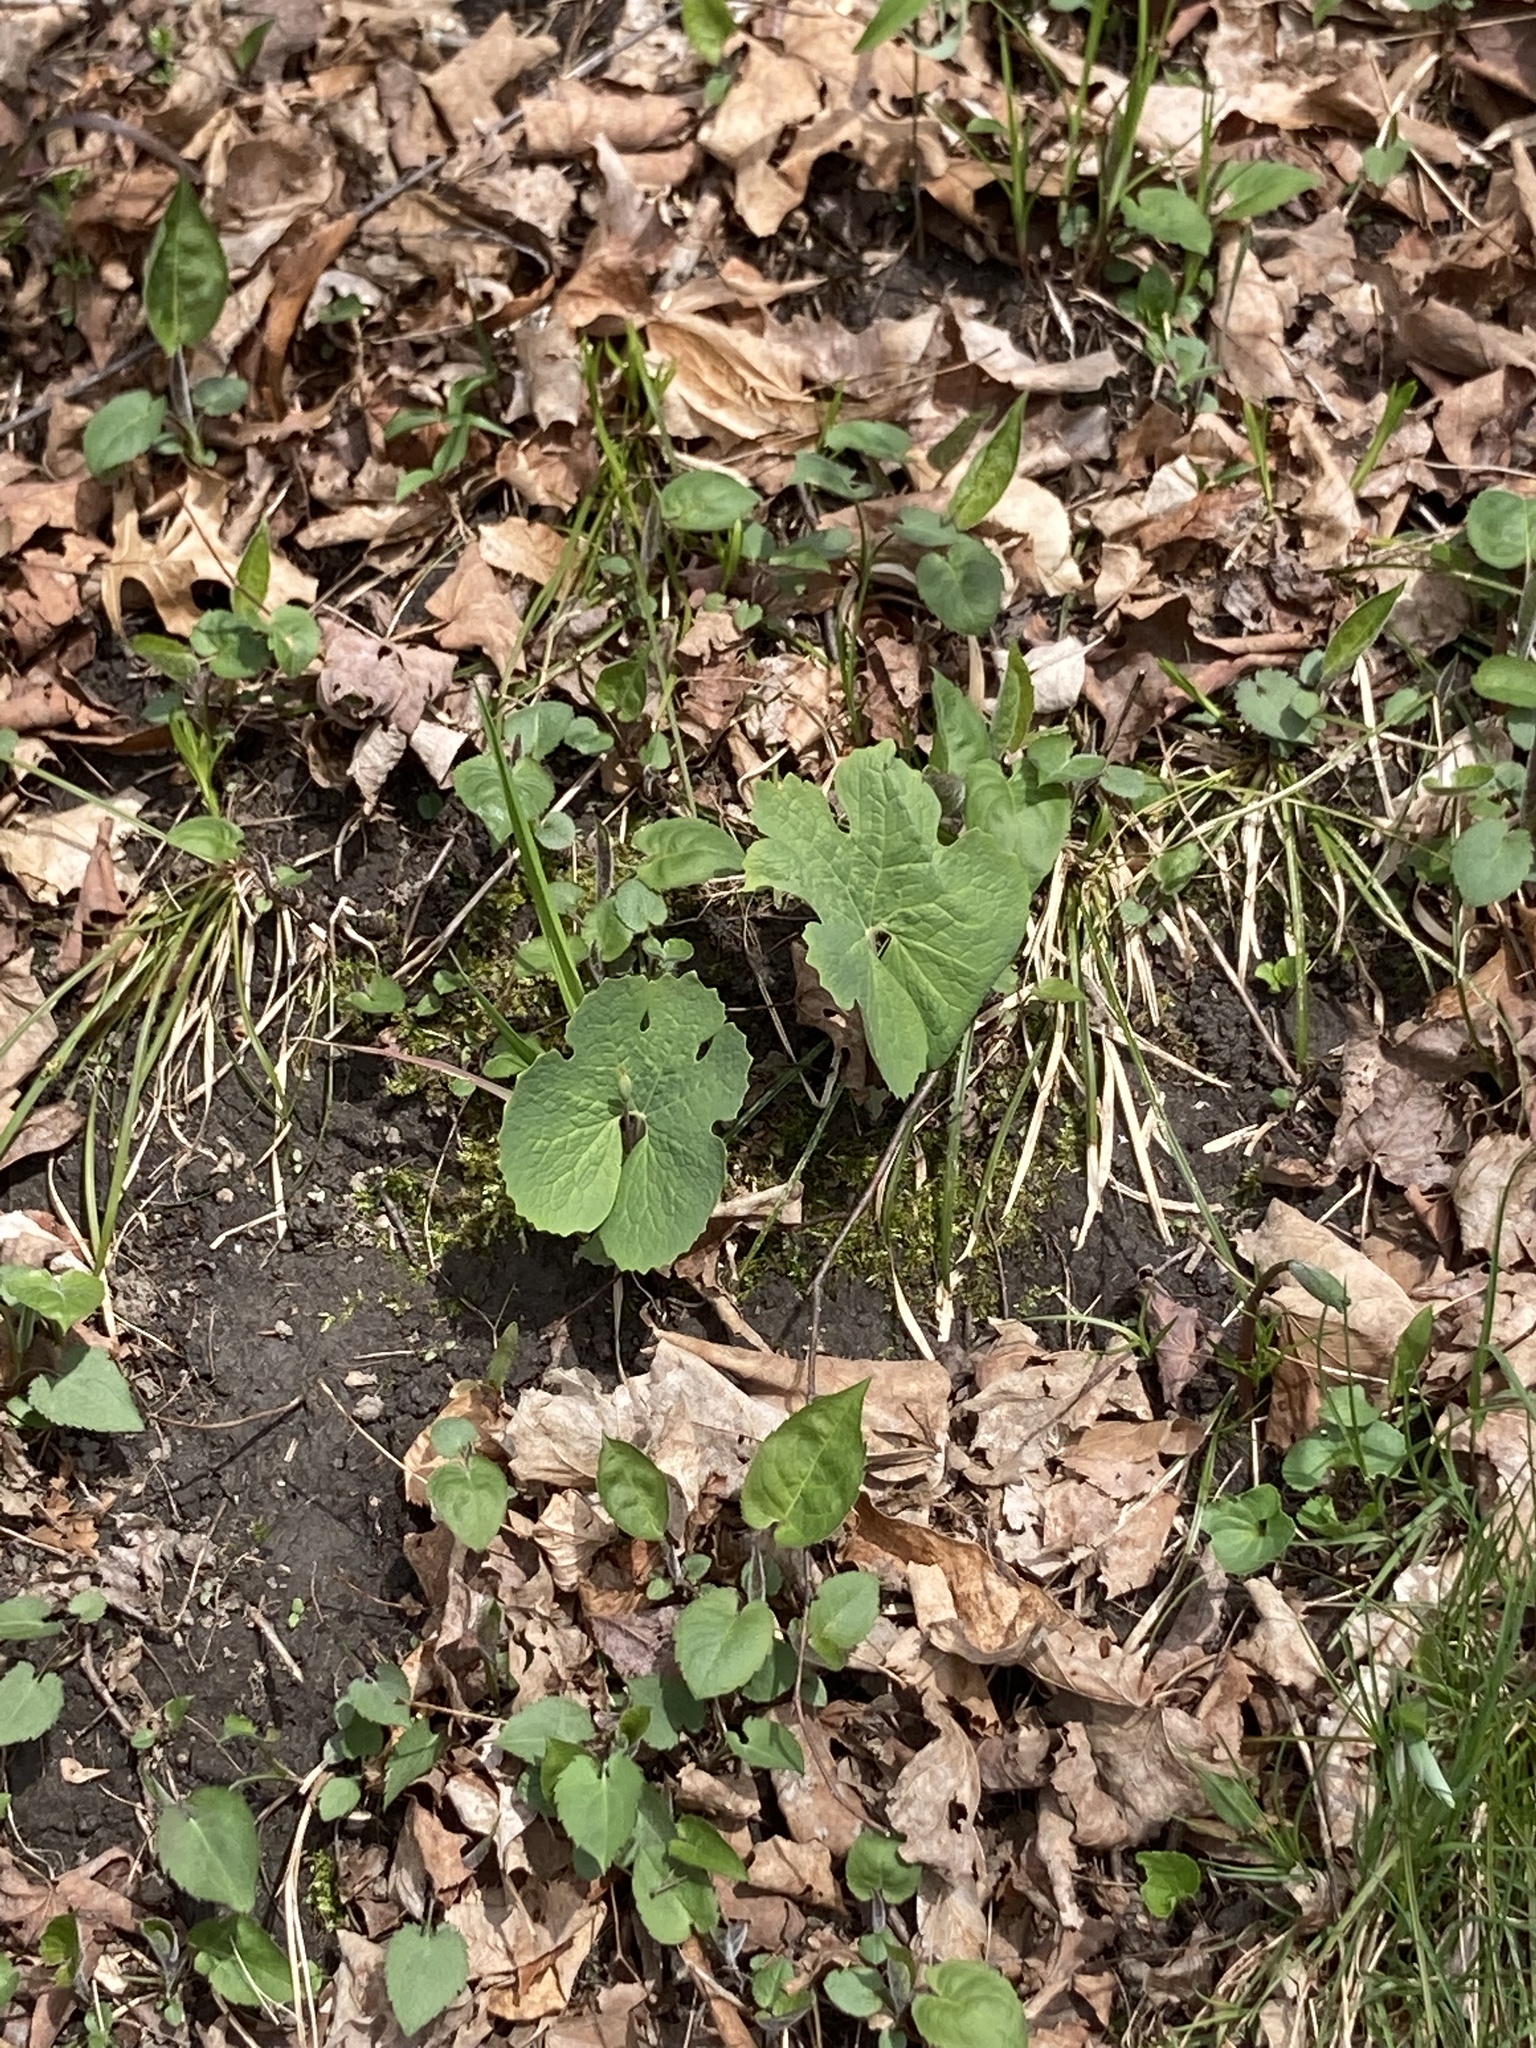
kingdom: Plantae
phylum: Tracheophyta
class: Magnoliopsida
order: Ranunculales
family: Papaveraceae
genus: Sanguinaria
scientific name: Sanguinaria canadensis
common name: Bloodroot
